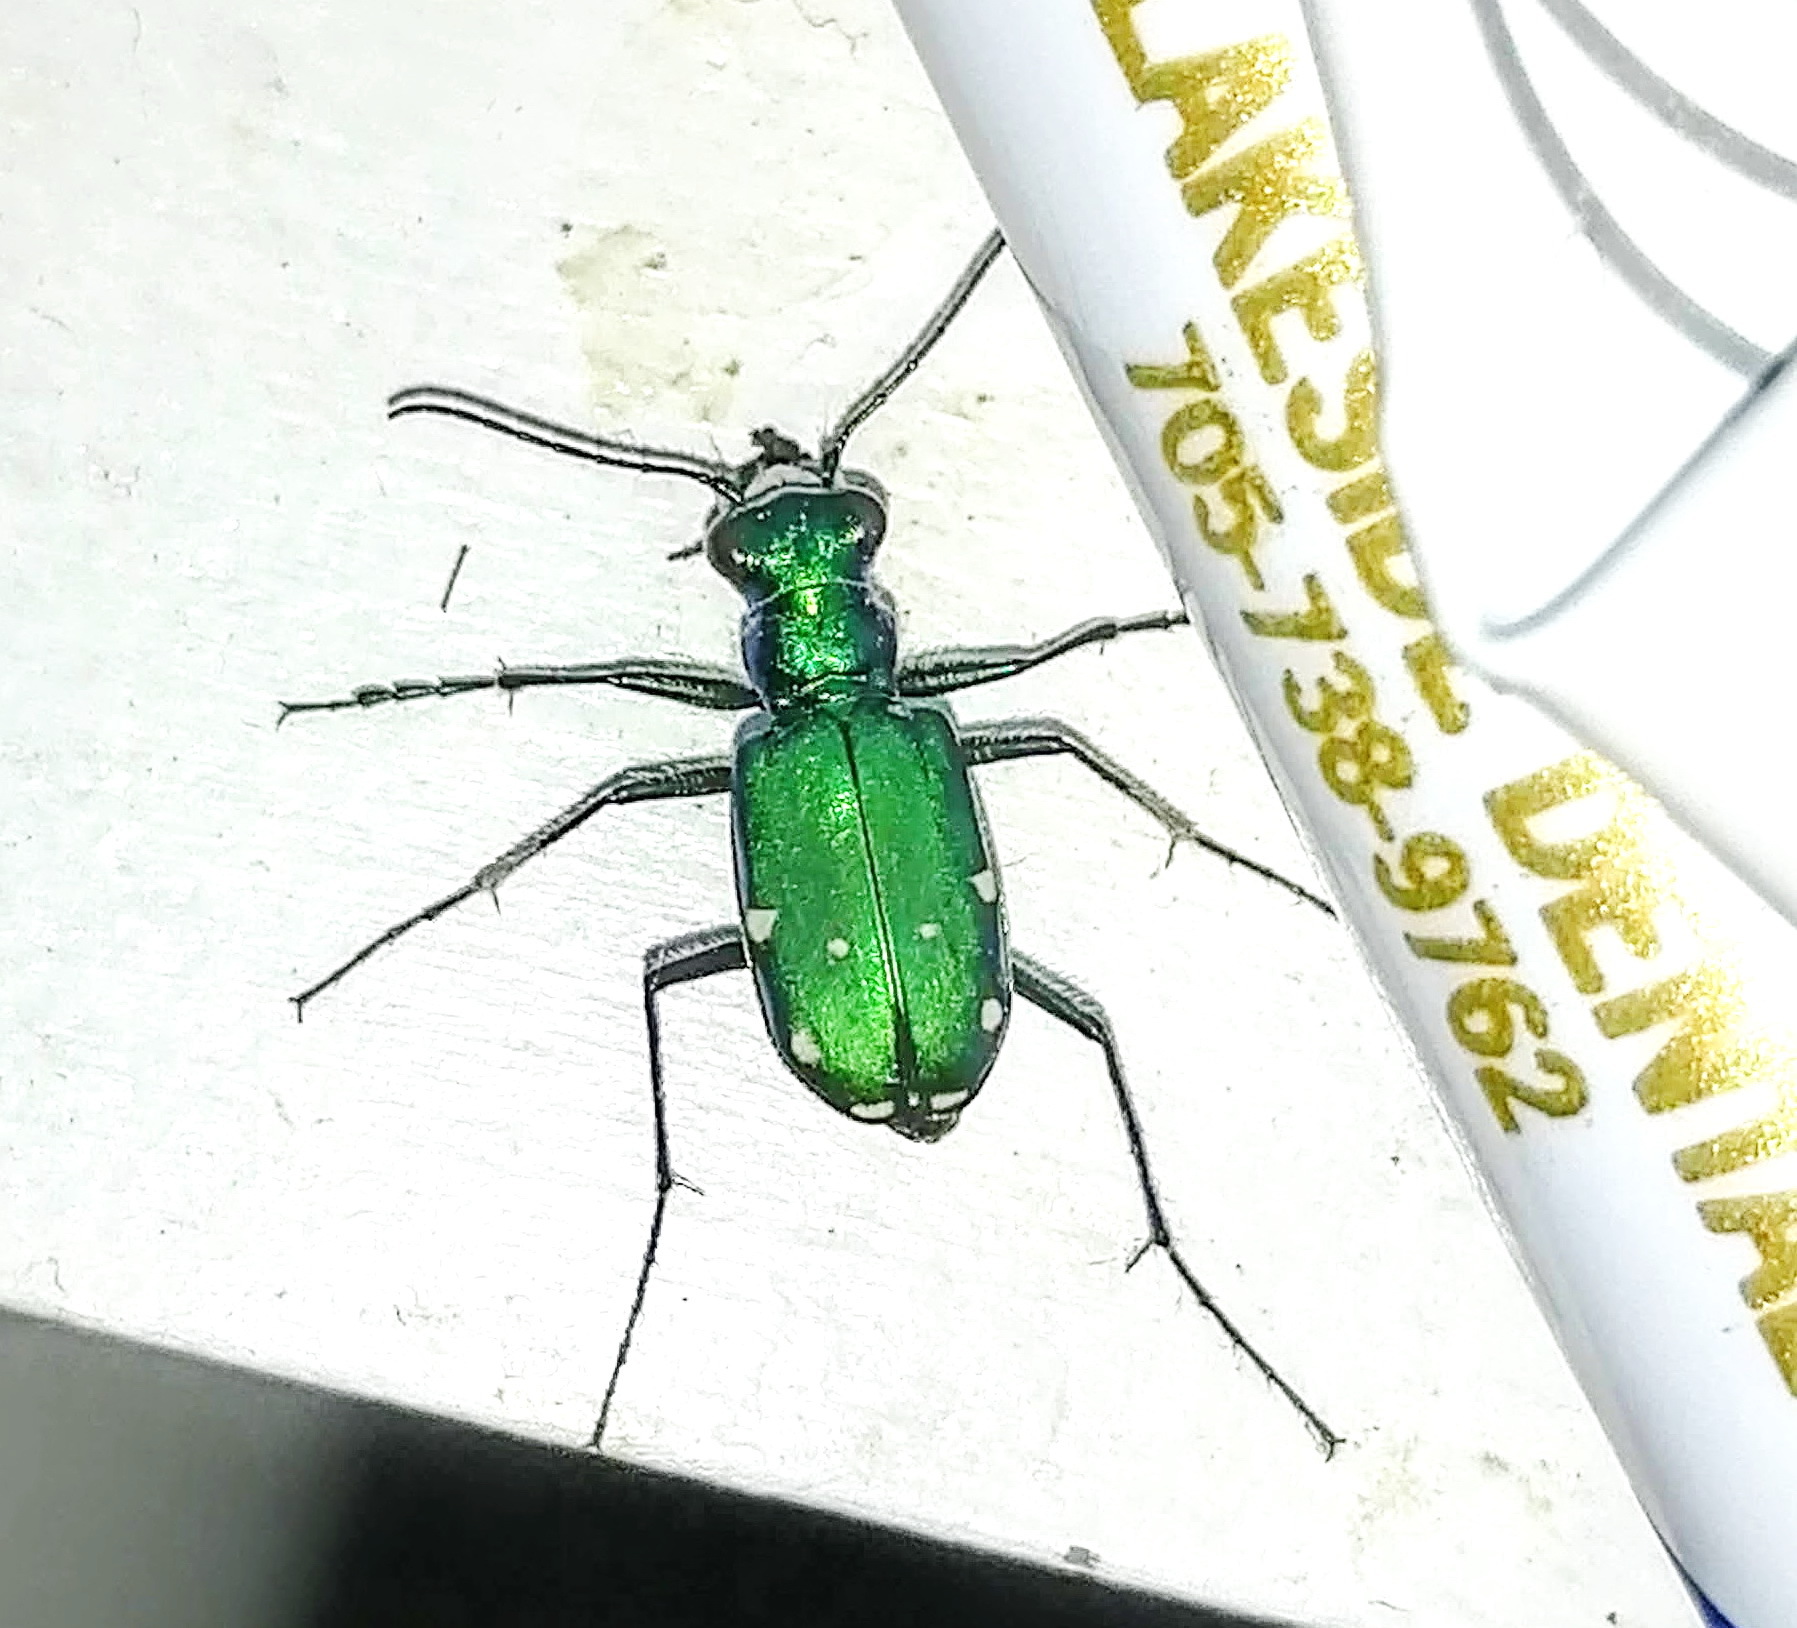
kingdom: Animalia
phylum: Arthropoda
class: Insecta
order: Coleoptera
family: Carabidae
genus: Cicindela
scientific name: Cicindela sexguttata
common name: Six-spotted tiger beetle
